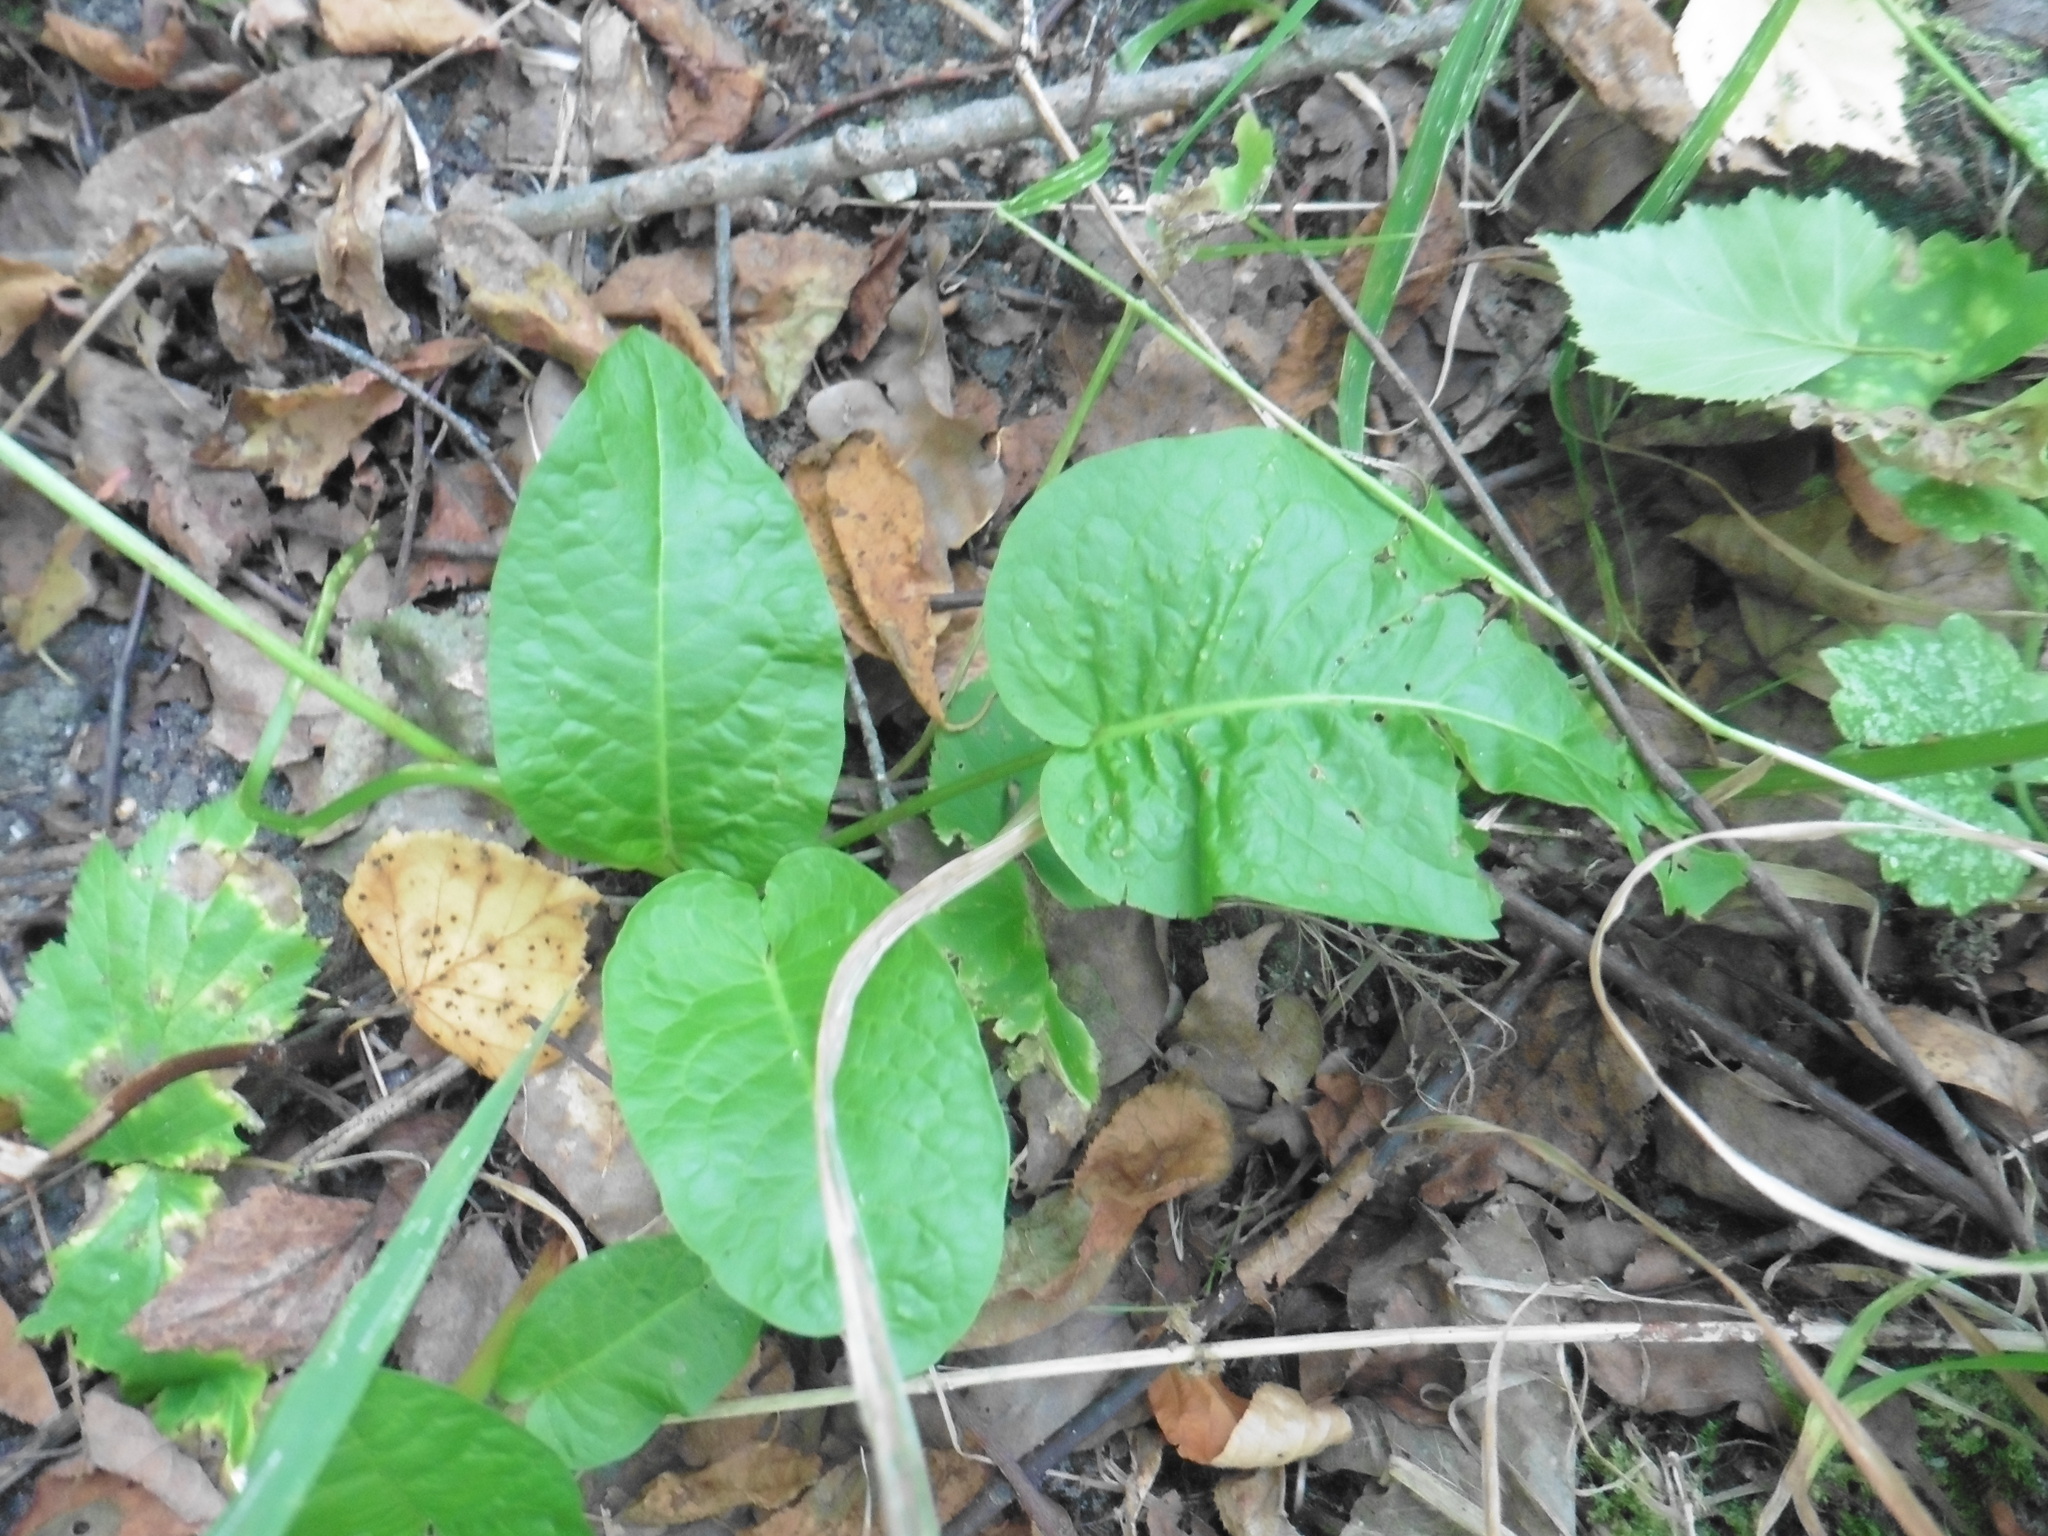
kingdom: Plantae
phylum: Tracheophyta
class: Magnoliopsida
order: Caryophyllales
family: Polygonaceae
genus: Rumex
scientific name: Rumex obtusifolius
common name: Bitter dock
